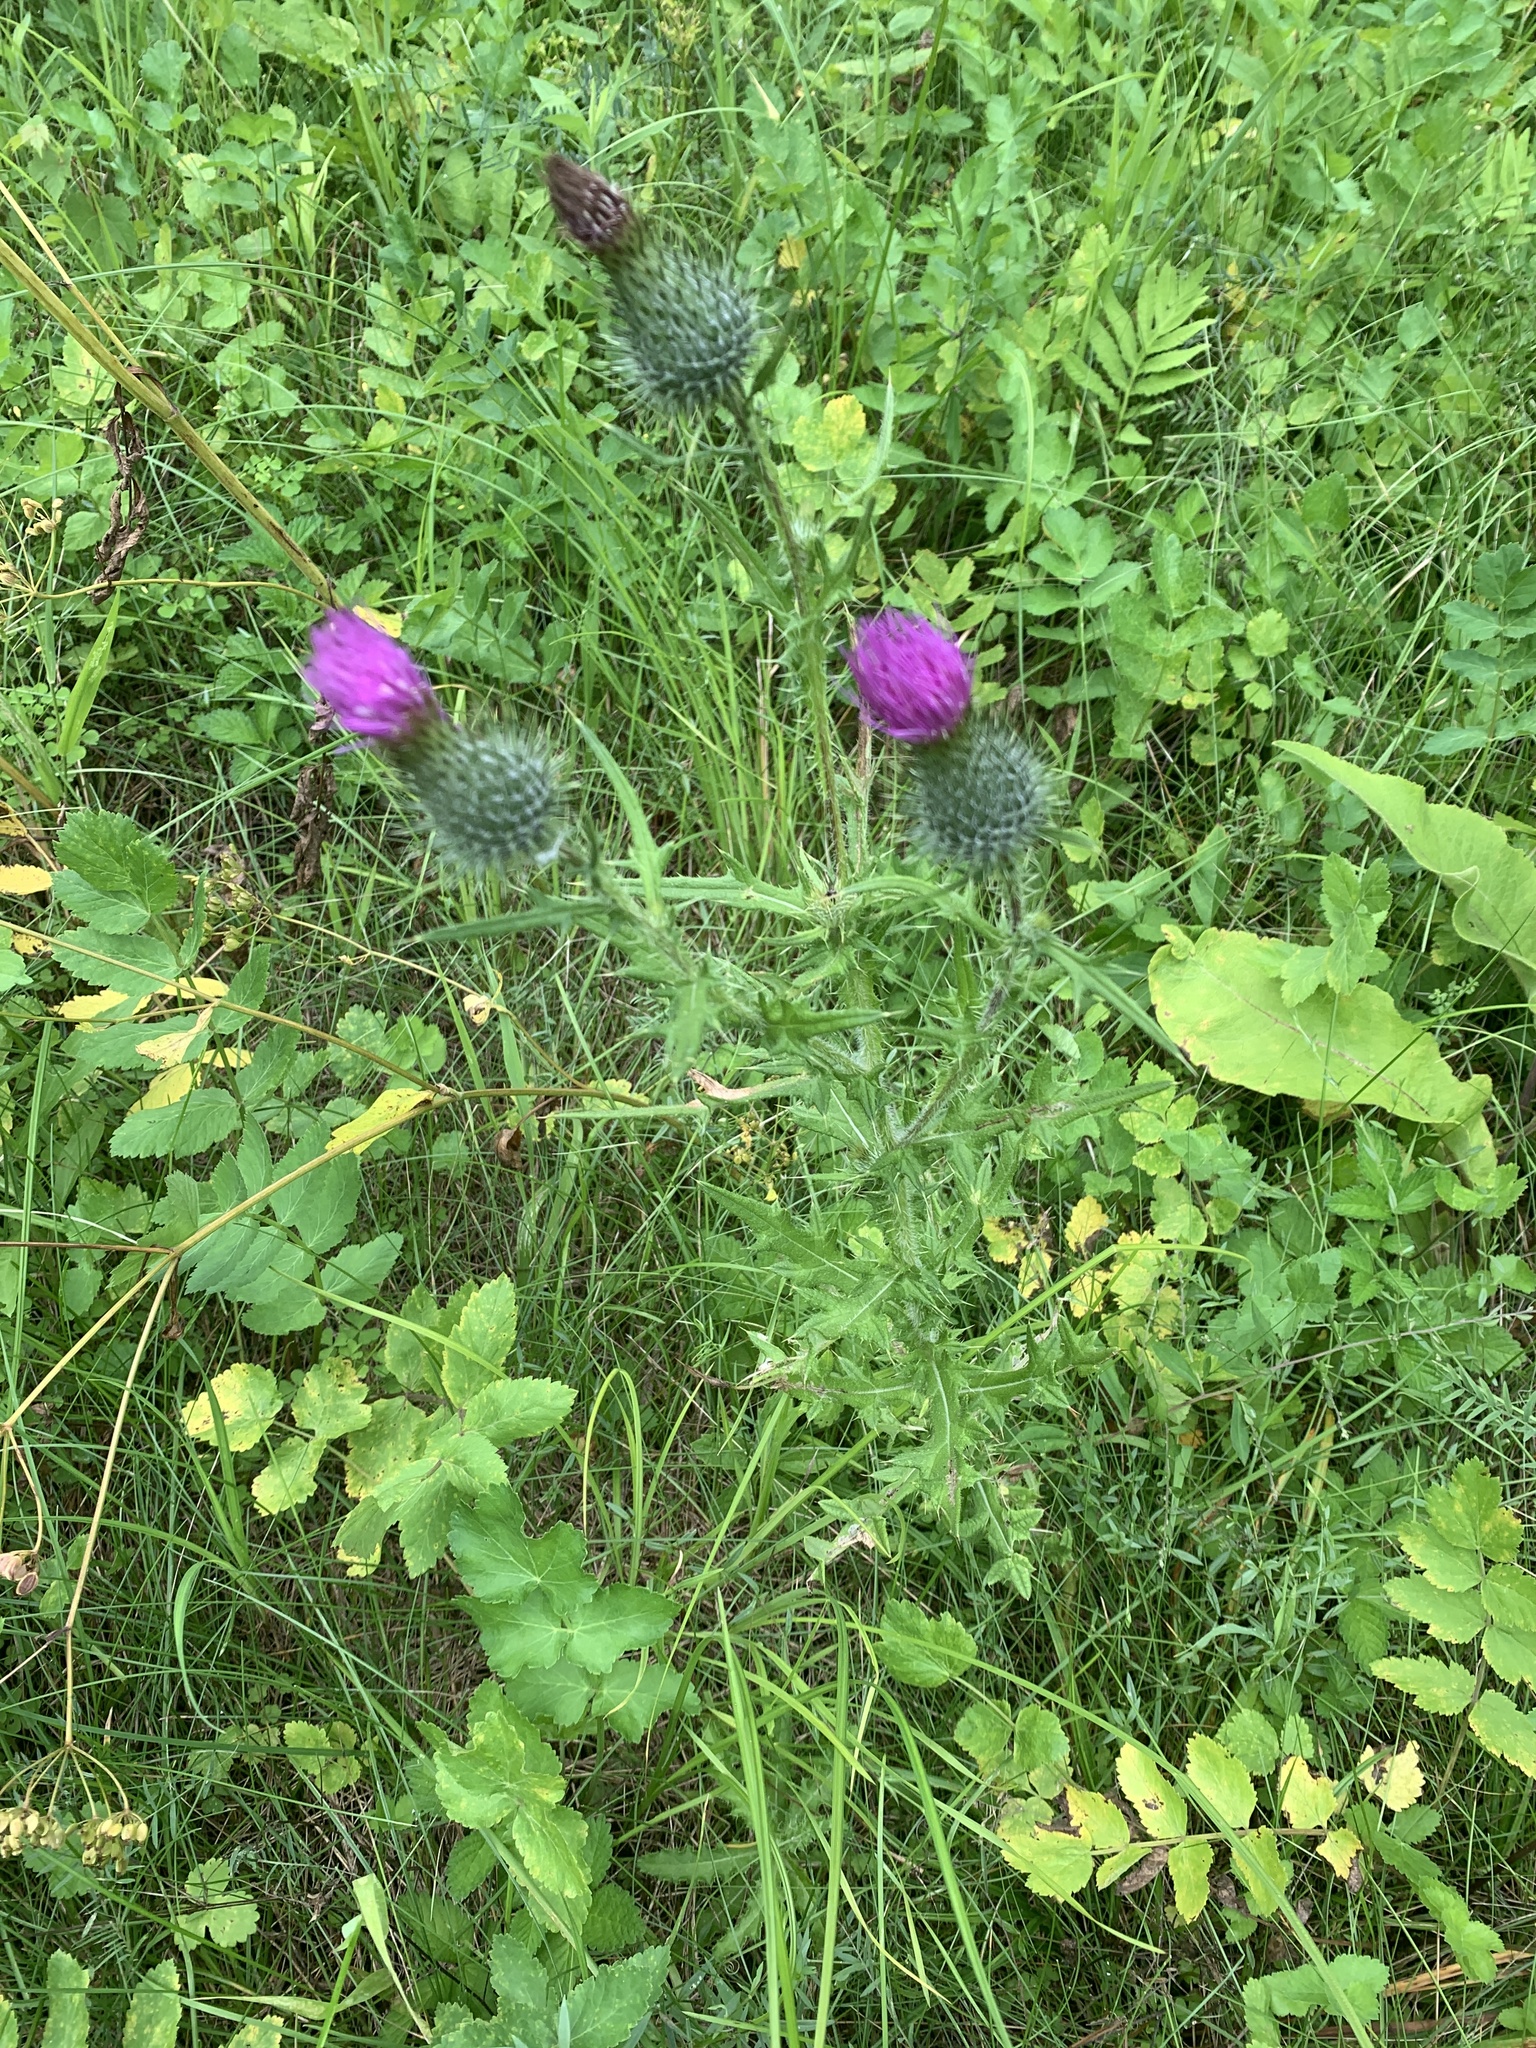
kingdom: Plantae
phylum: Tracheophyta
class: Magnoliopsida
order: Asterales
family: Asteraceae
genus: Cirsium
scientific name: Cirsium vulgare
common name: Bull thistle
